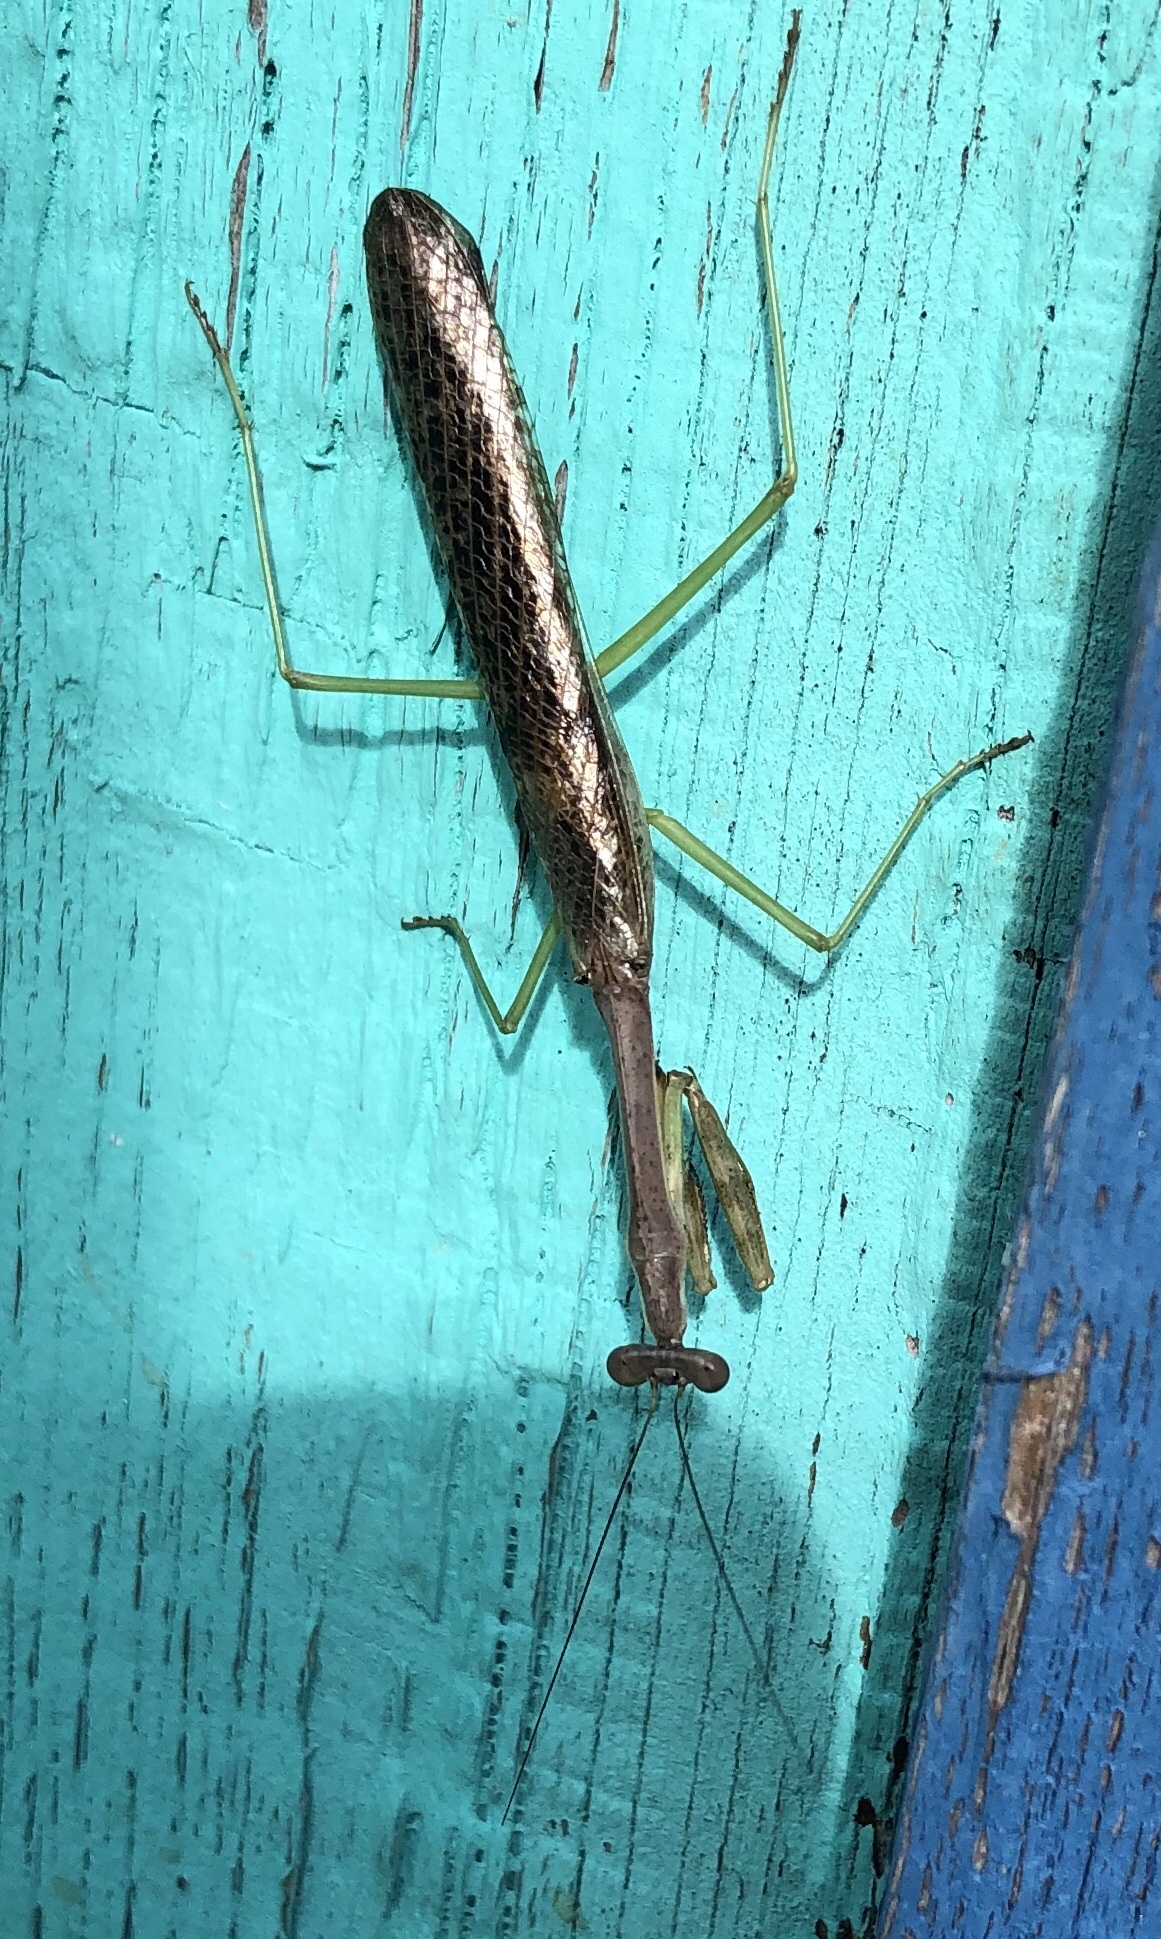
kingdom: Animalia
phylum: Arthropoda
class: Insecta
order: Mantodea
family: Mantidae
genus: Stagmomantis
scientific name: Stagmomantis carolina
